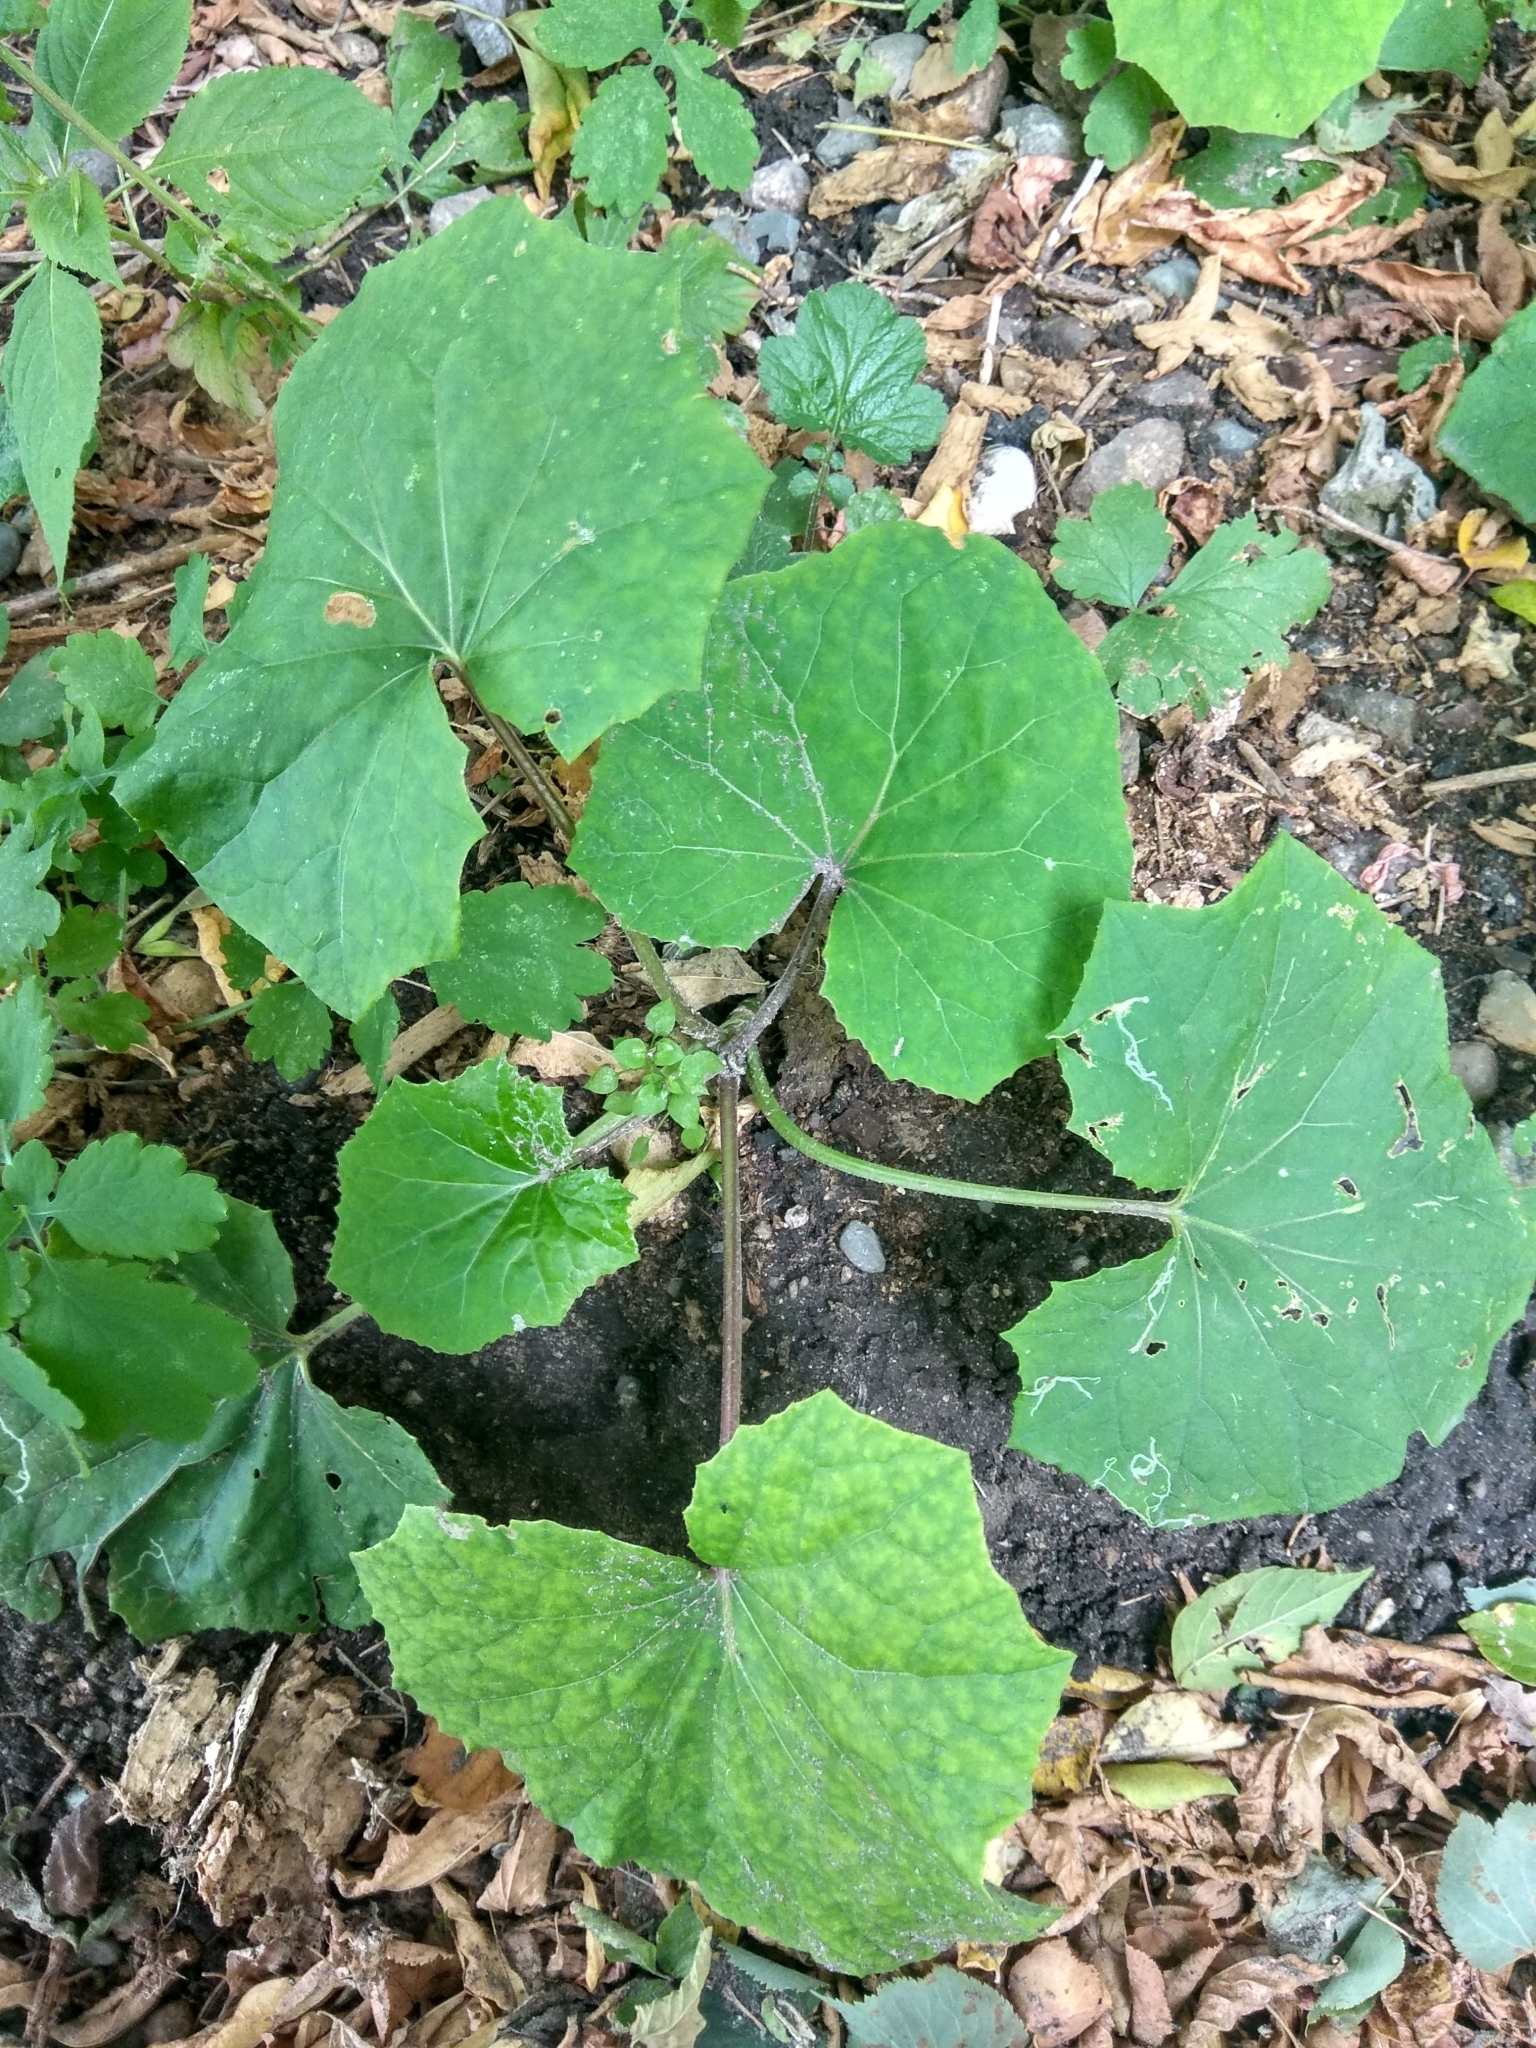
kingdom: Plantae
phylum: Tracheophyta
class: Magnoliopsida
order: Asterales
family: Asteraceae
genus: Tussilago
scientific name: Tussilago farfara
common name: Coltsfoot
